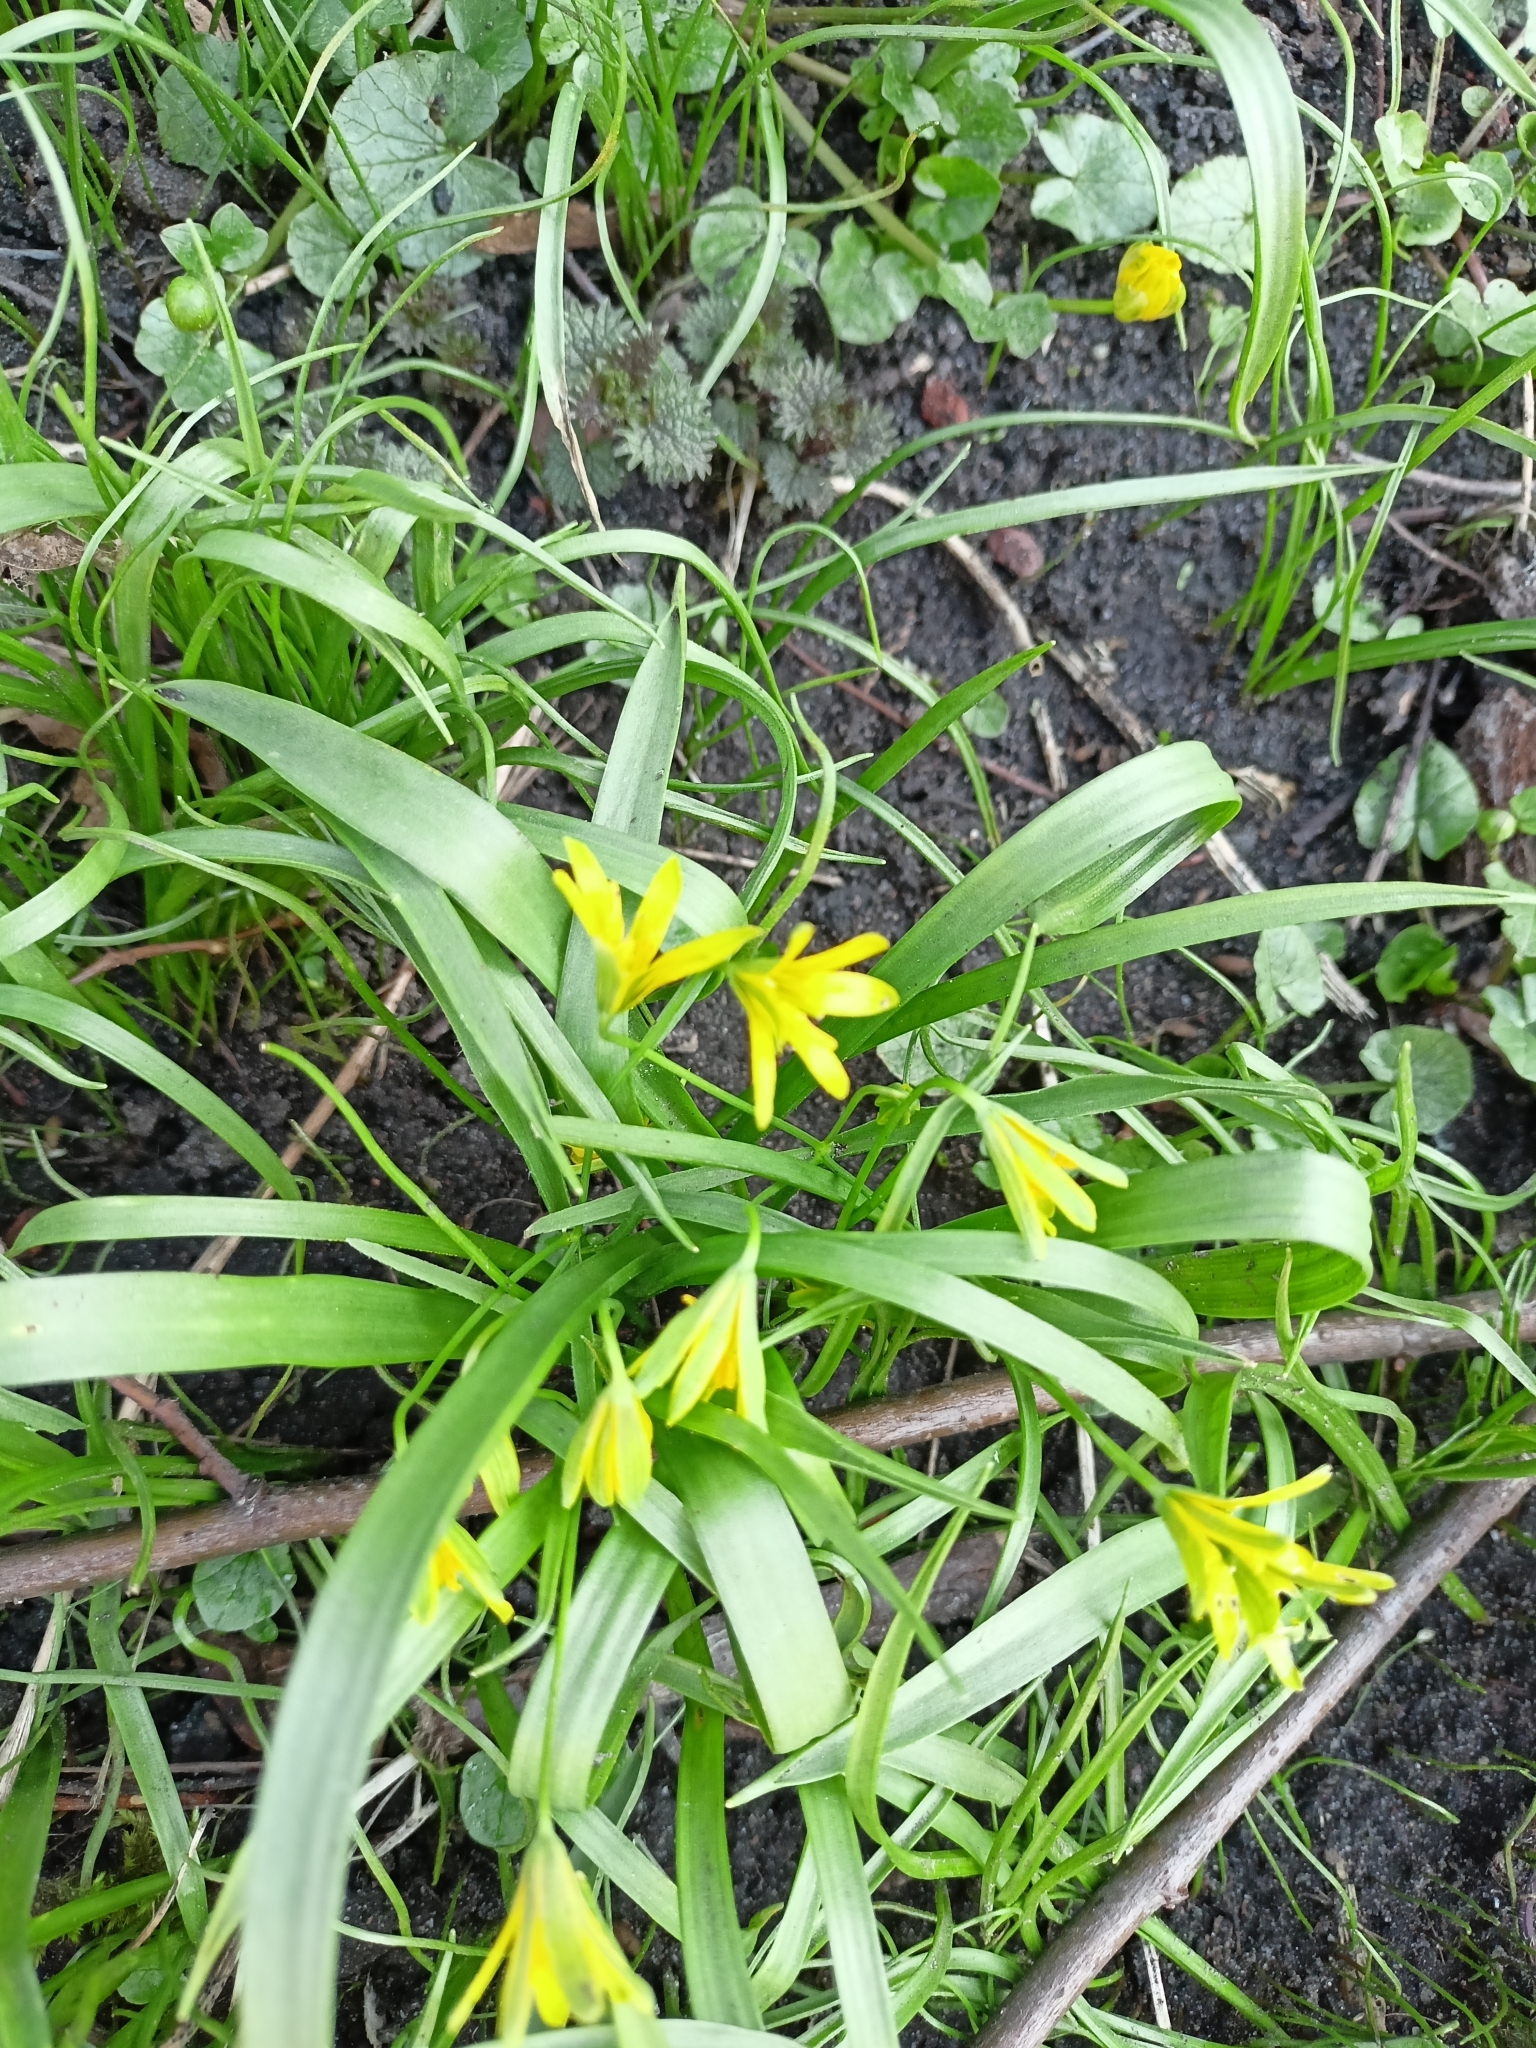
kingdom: Plantae
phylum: Tracheophyta
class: Liliopsida
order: Liliales
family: Liliaceae
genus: Gagea
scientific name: Gagea lutea
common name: Yellow star-of-bethlehem
